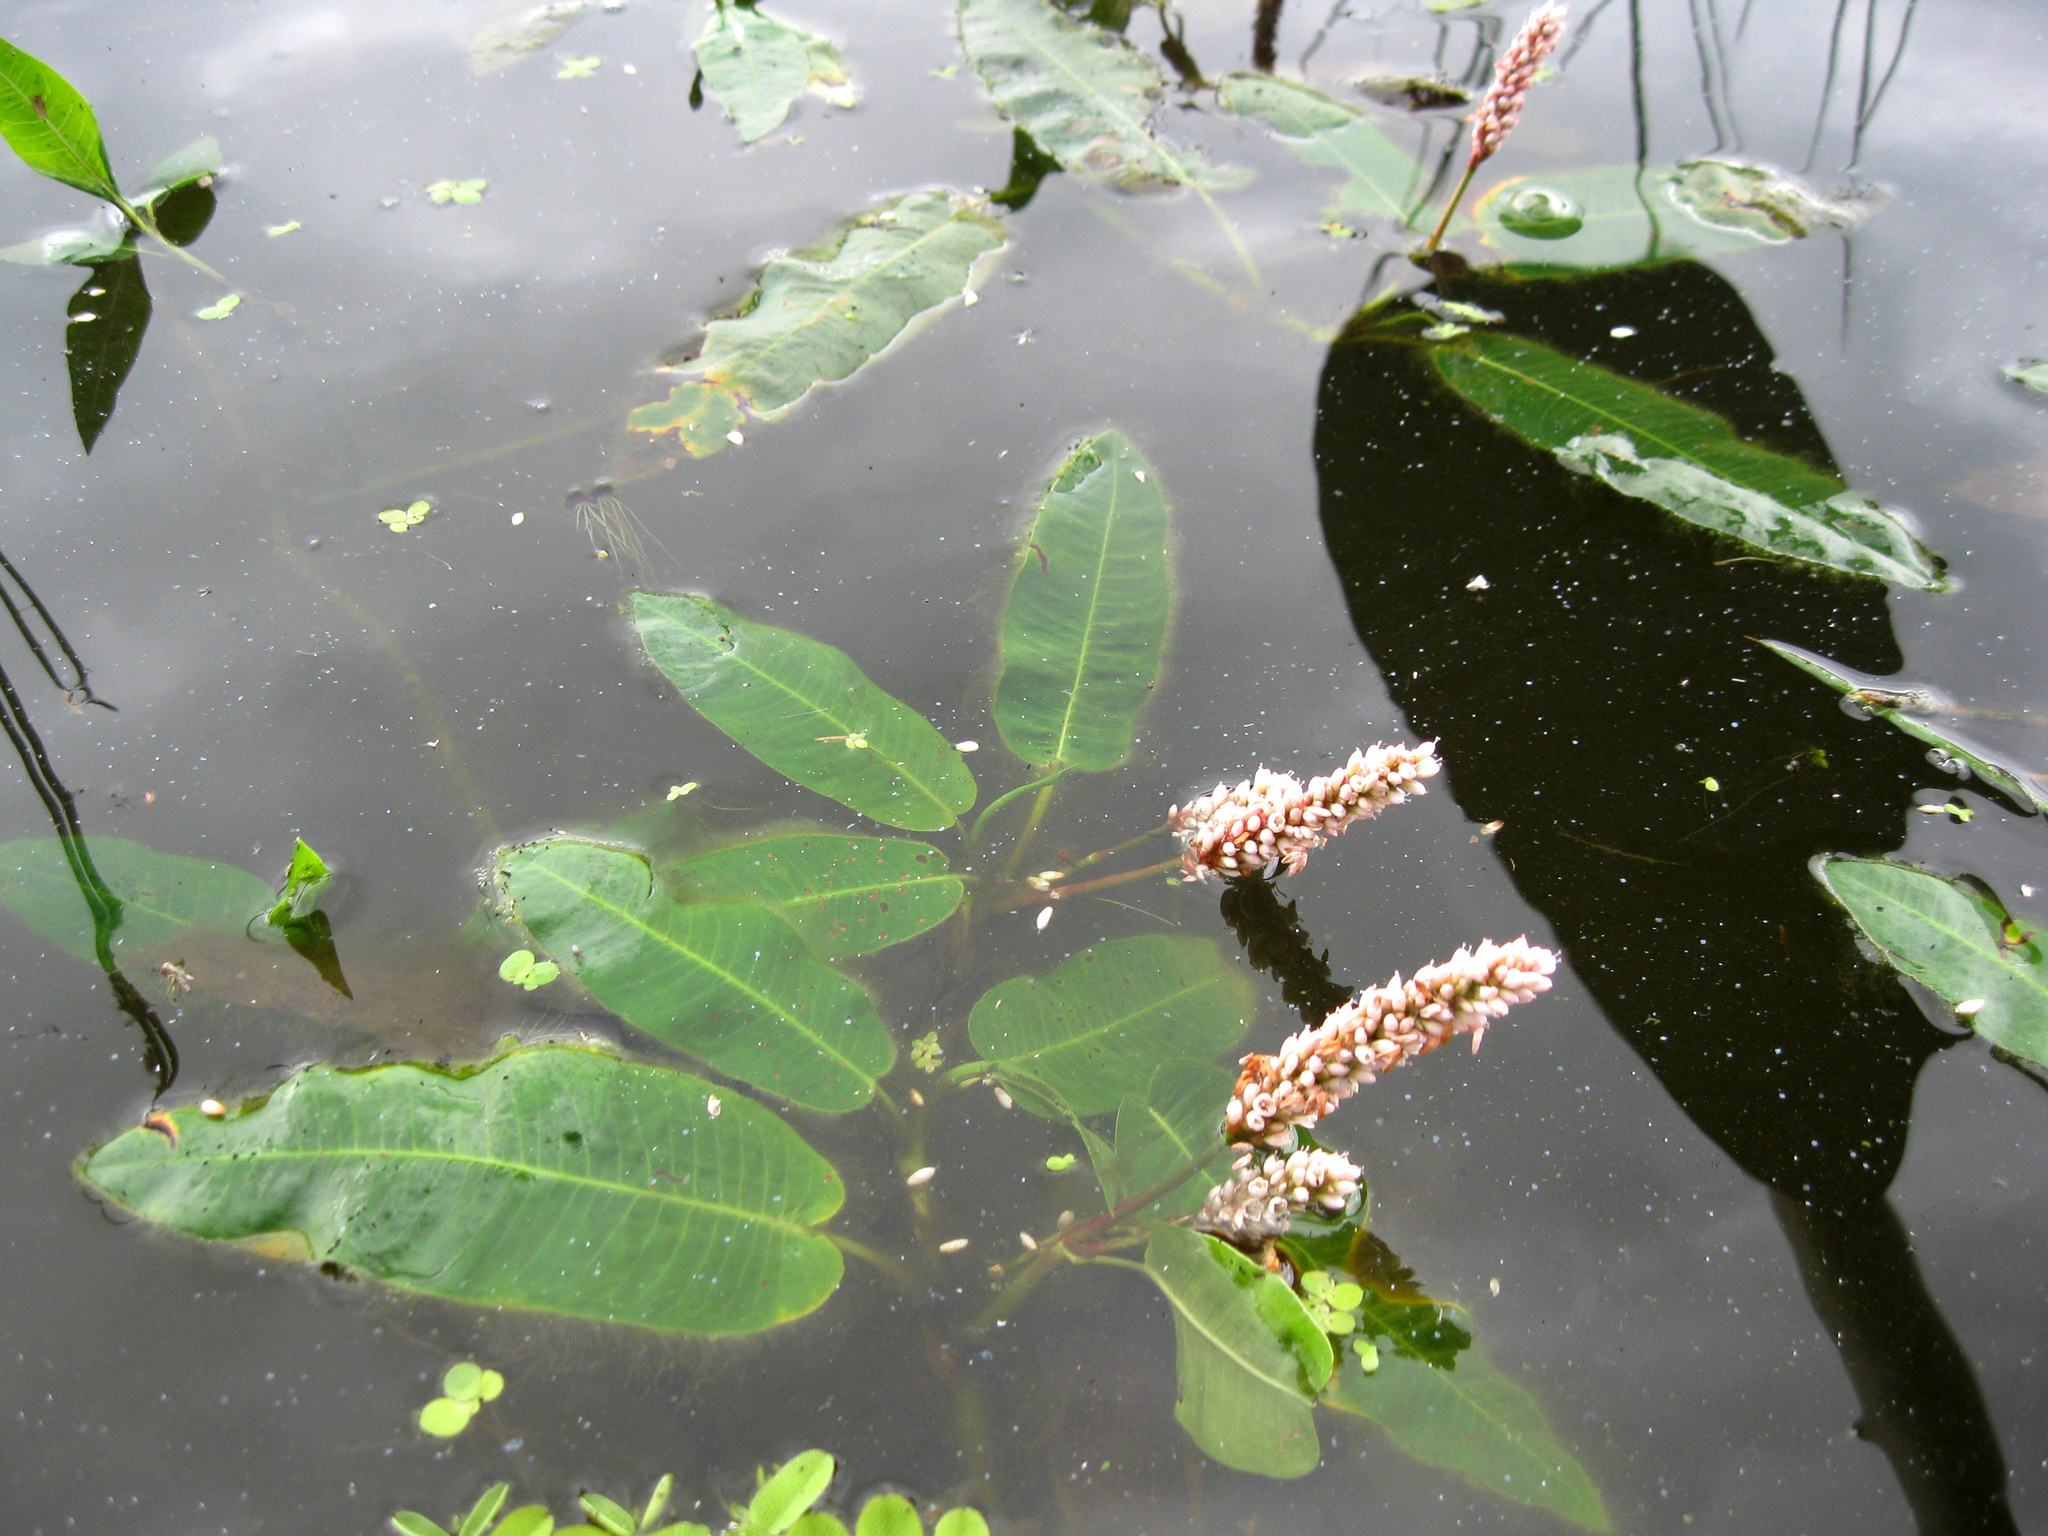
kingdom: Plantae
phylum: Tracheophyta
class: Magnoliopsida
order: Caryophyllales
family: Polygonaceae
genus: Persicaria
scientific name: Persicaria amphibia
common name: Amphibious bistort
